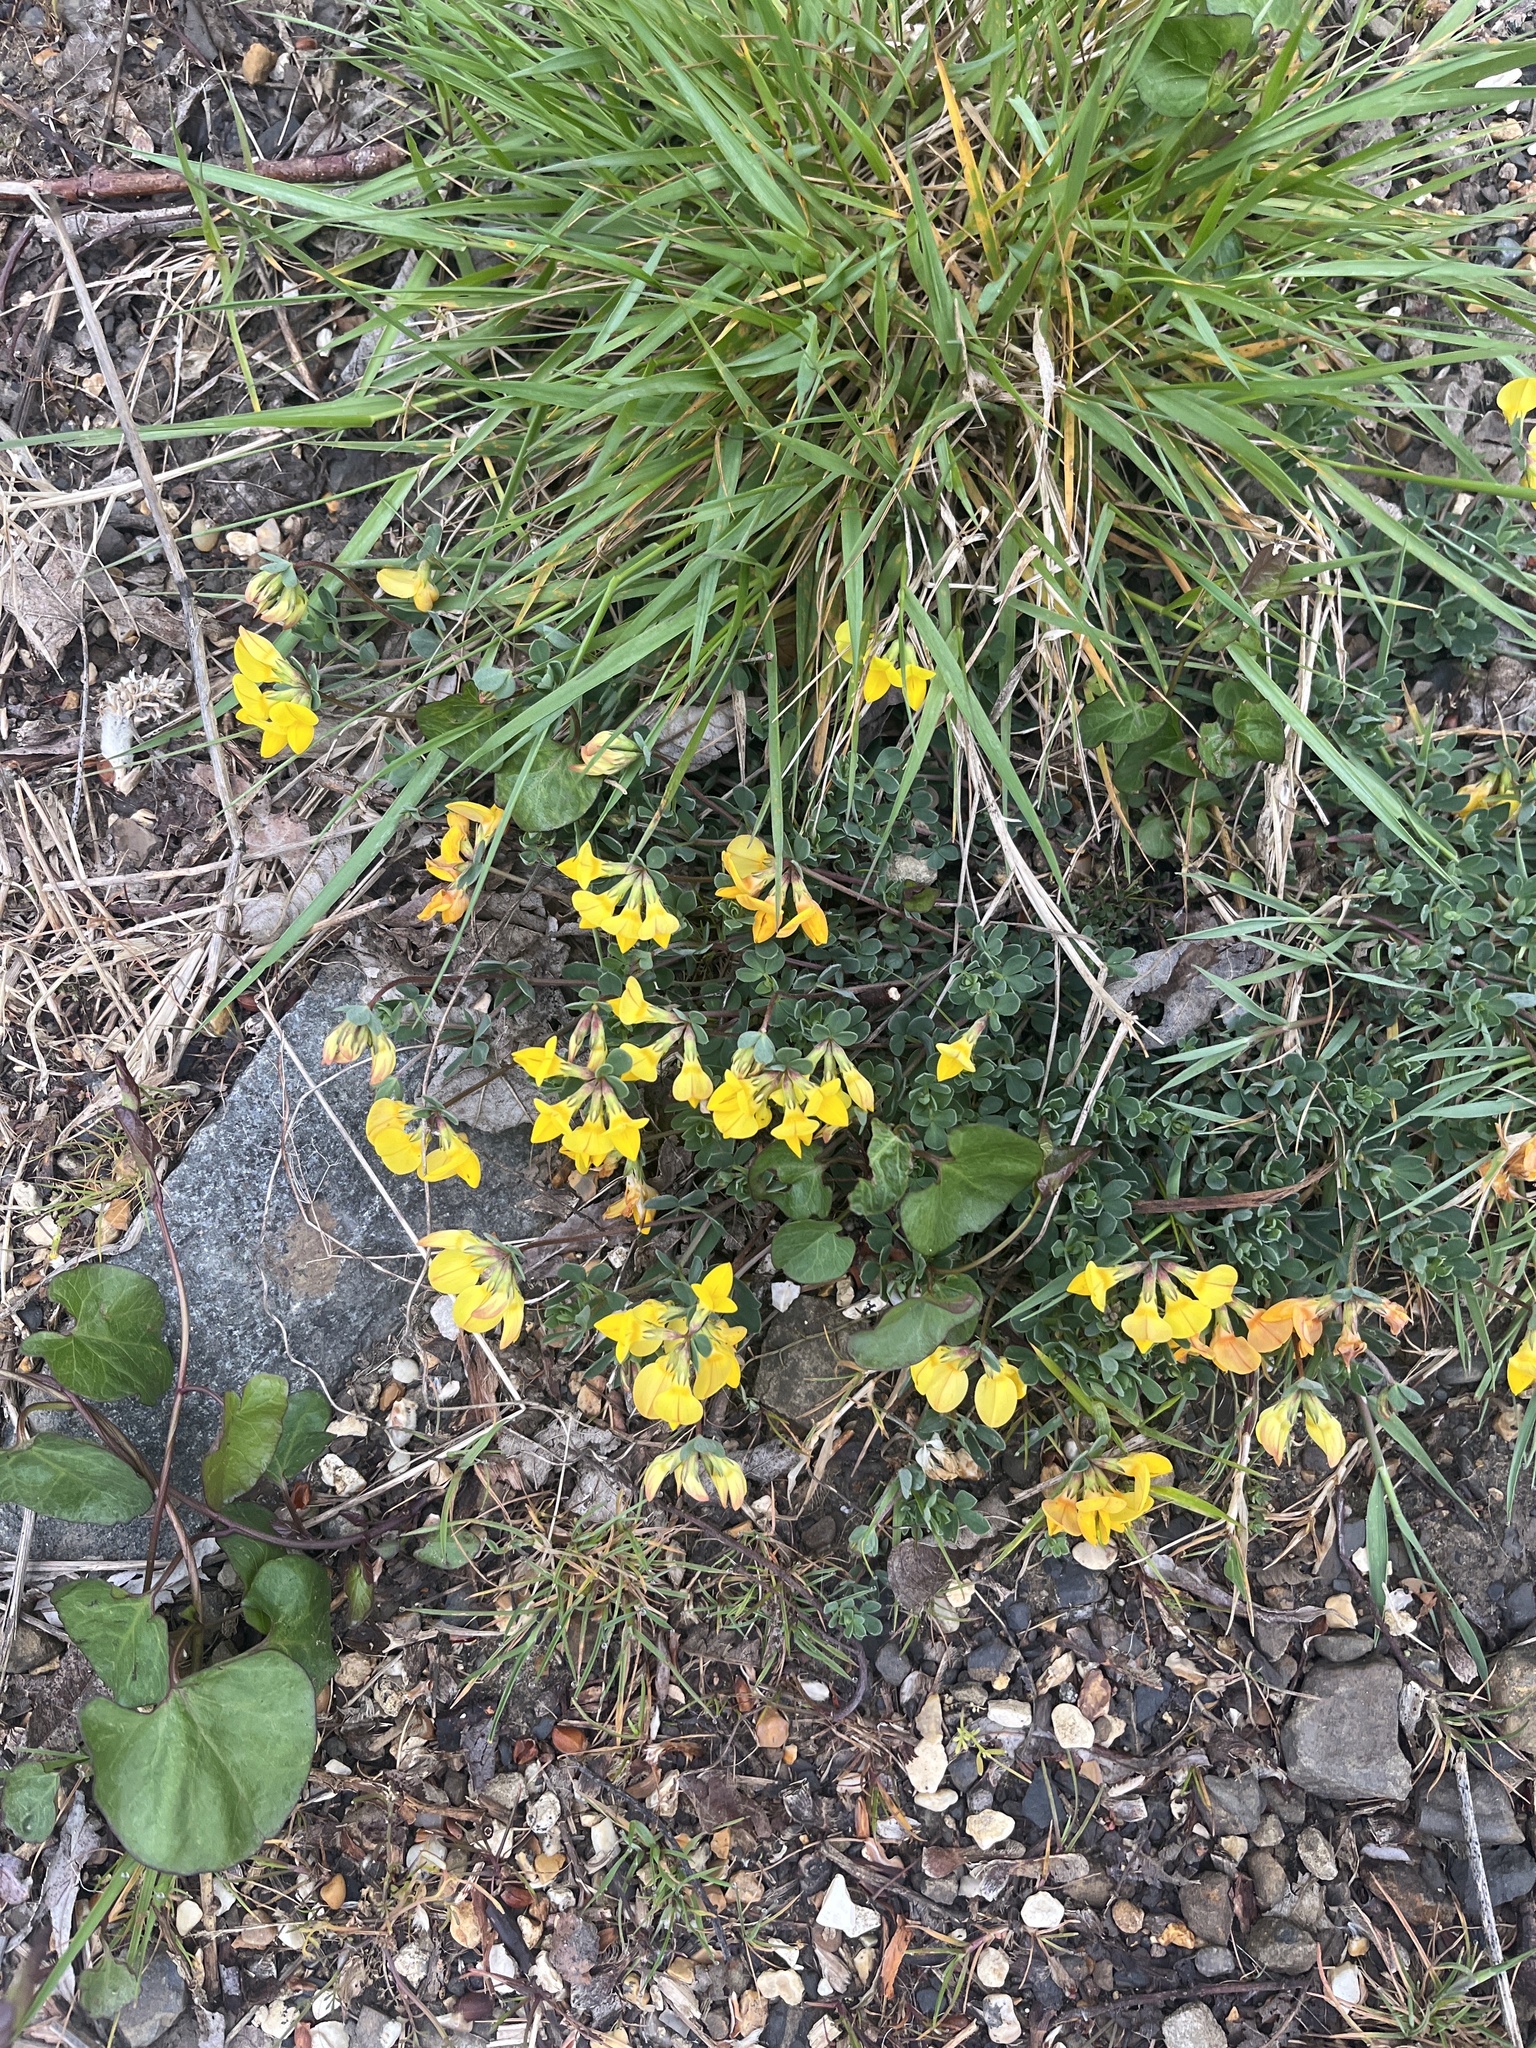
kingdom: Plantae
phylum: Tracheophyta
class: Magnoliopsida
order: Fabales
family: Fabaceae
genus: Lotus
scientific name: Lotus corniculatus
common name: Common bird's-foot-trefoil
